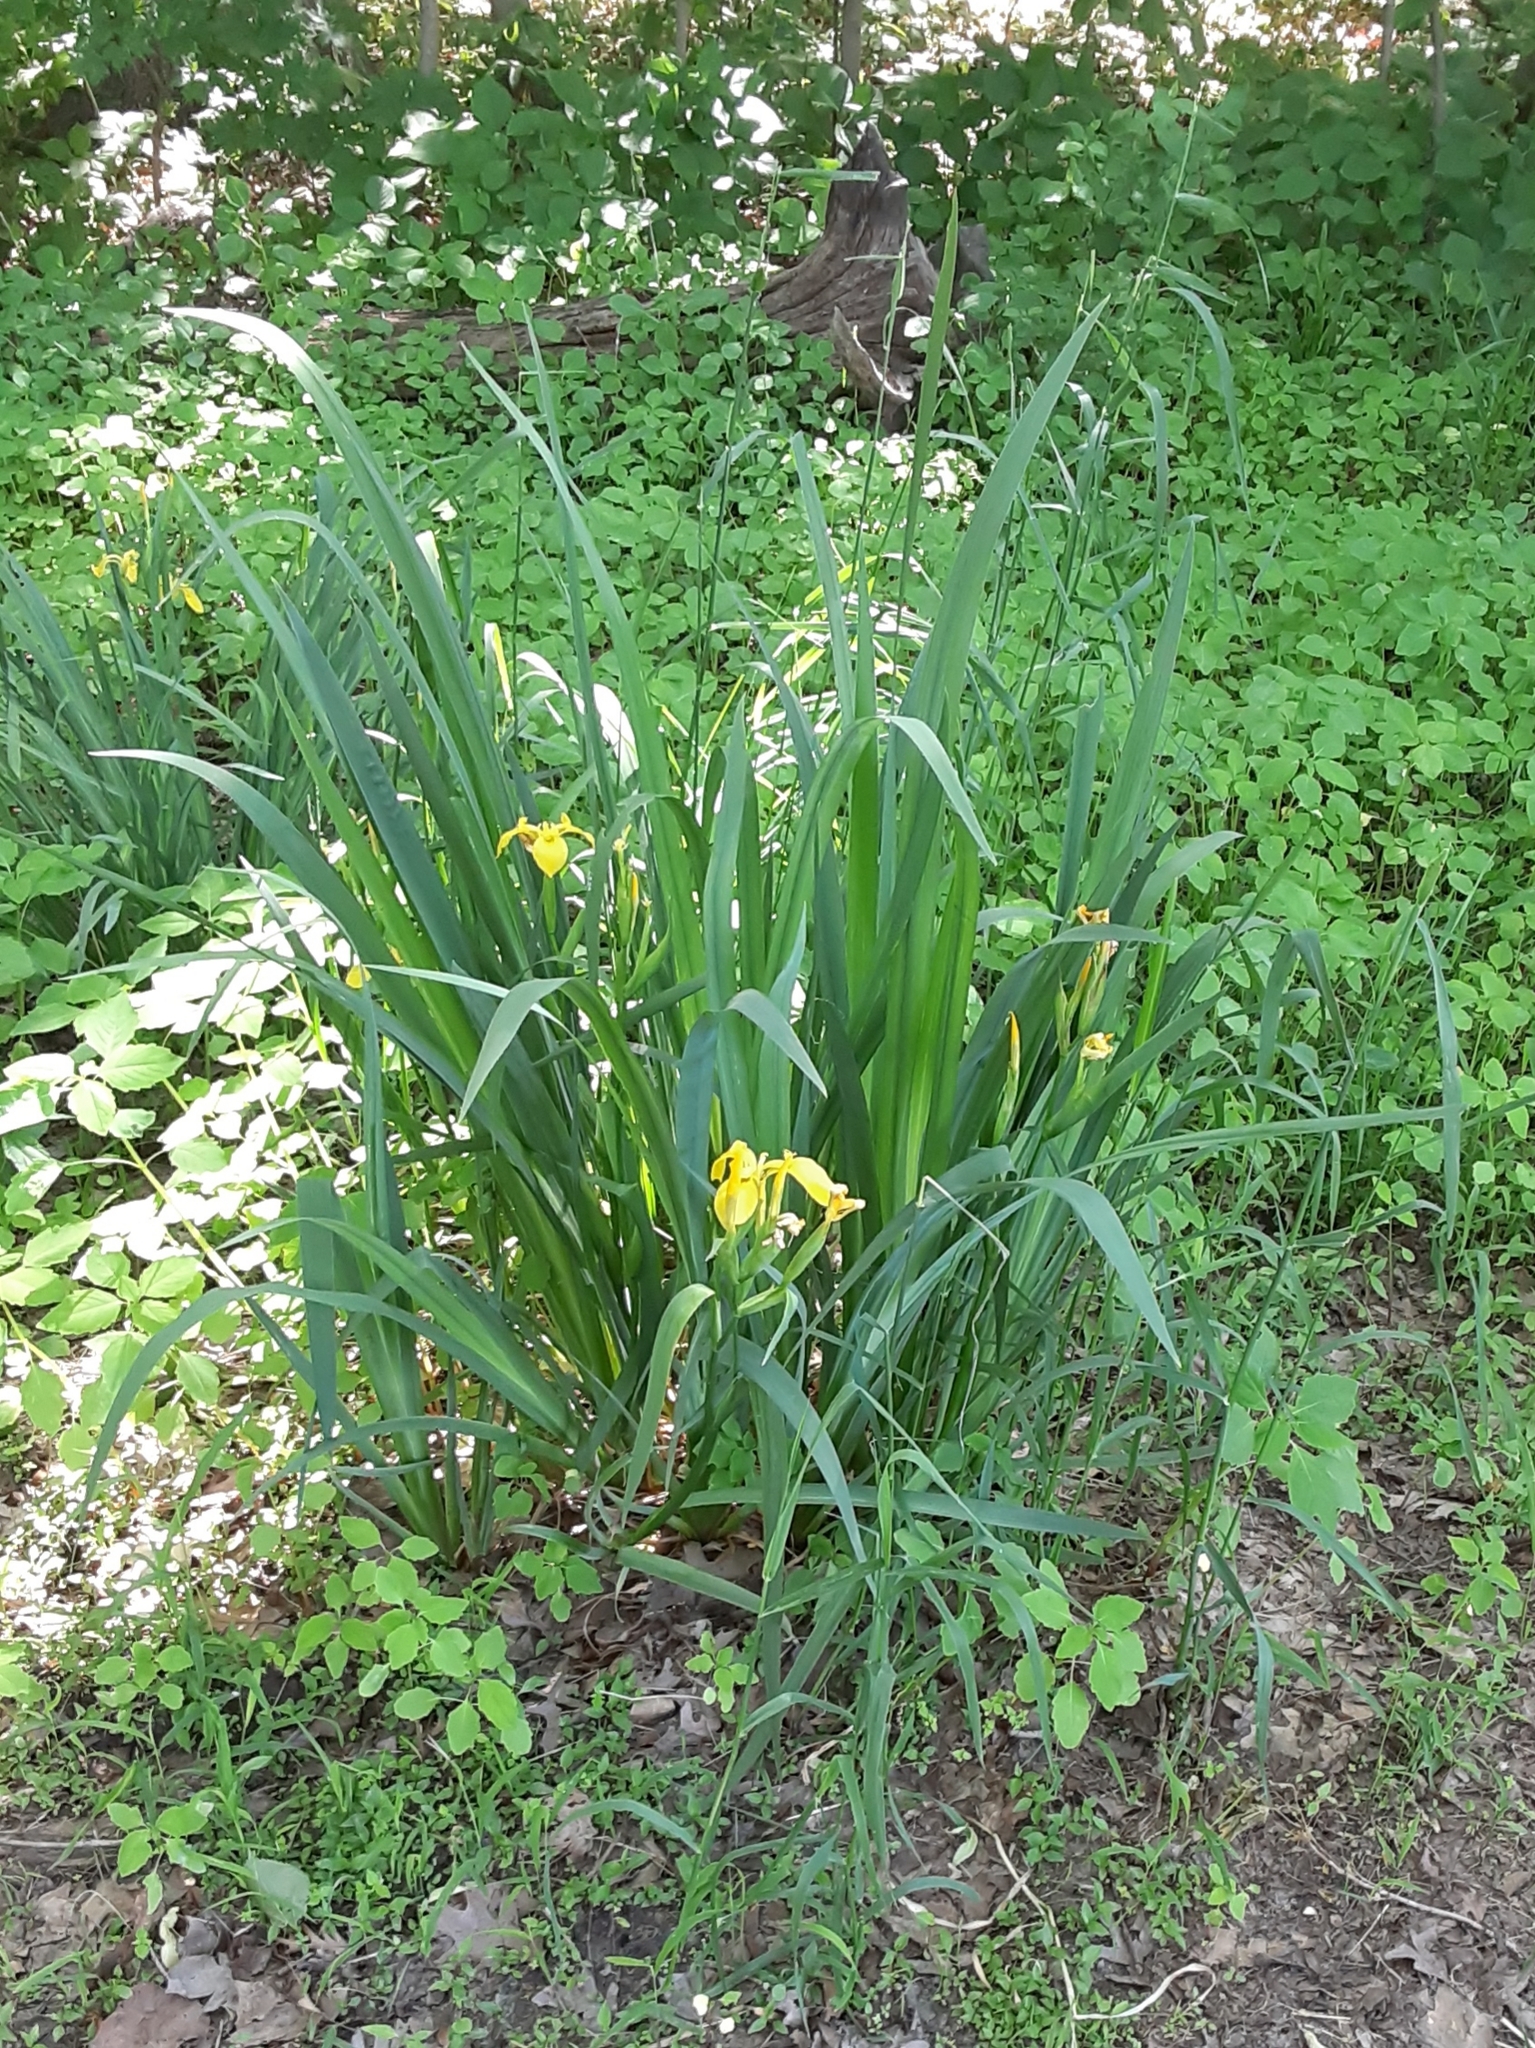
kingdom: Plantae
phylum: Tracheophyta
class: Liliopsida
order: Asparagales
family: Iridaceae
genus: Iris
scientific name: Iris pseudacorus
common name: Yellow flag
